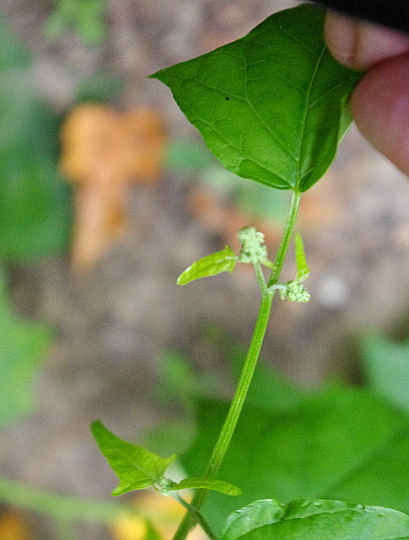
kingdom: Plantae
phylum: Tracheophyta
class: Magnoliopsida
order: Caryophyllales
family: Amaranthaceae
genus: Chenopodiastrum
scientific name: Chenopodiastrum hybridum
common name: Mapleleaf goosefoot
